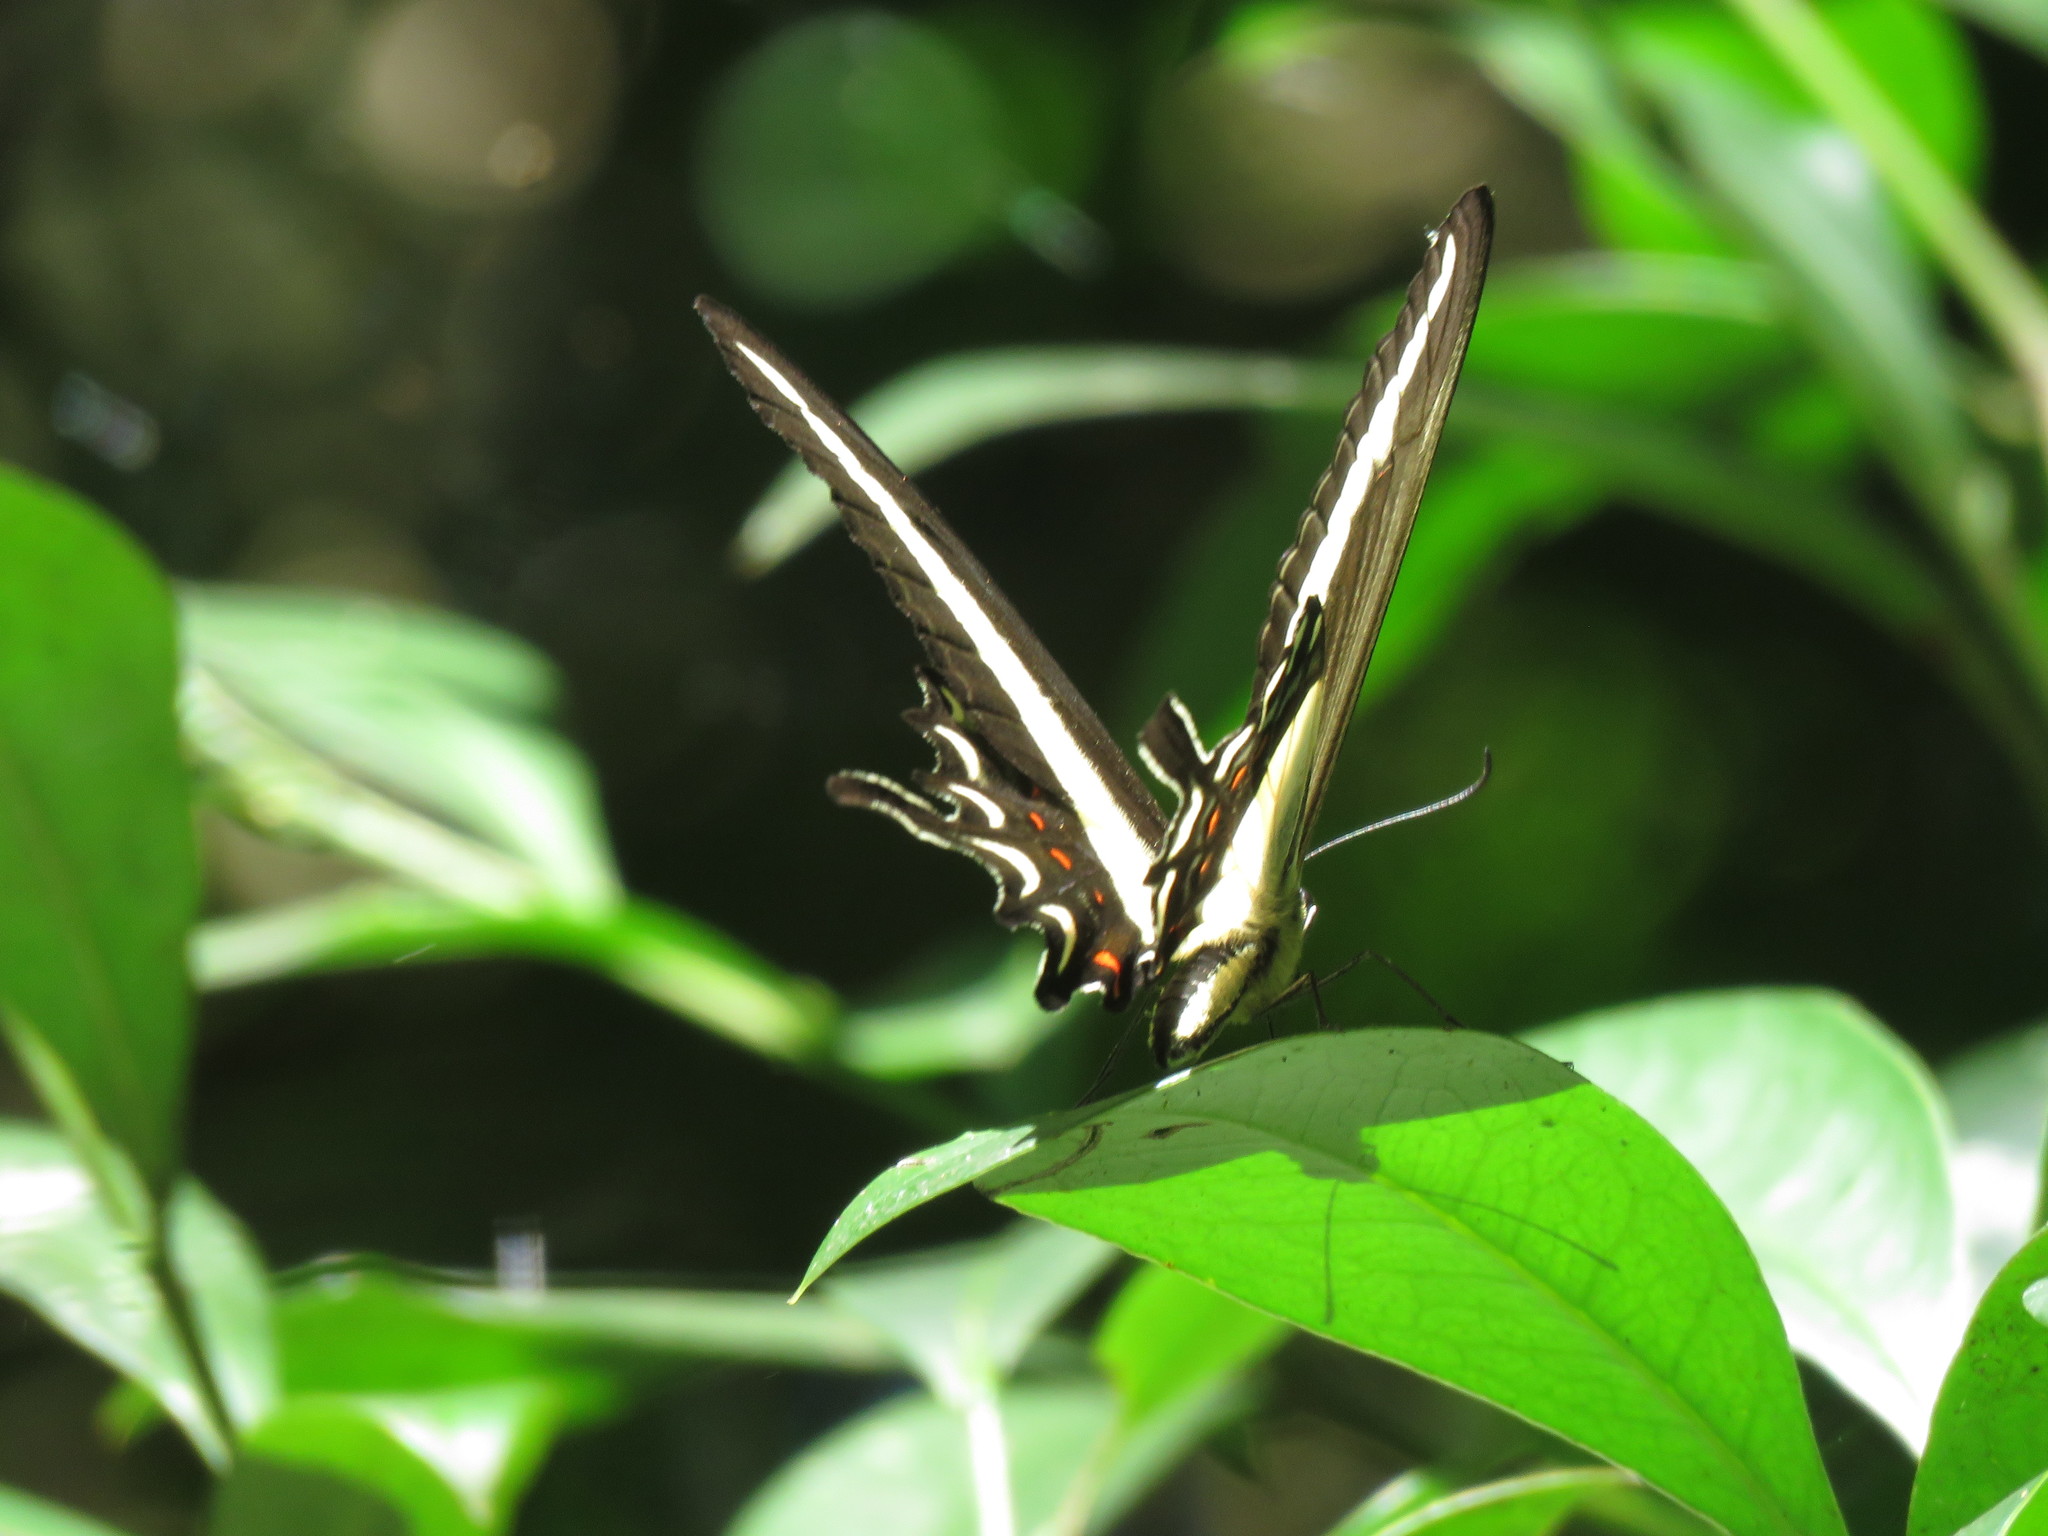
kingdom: Animalia
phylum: Arthropoda
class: Insecta
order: Lepidoptera
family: Papilionidae
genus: Papilio
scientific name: Papilio thoas
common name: King swallowtail
